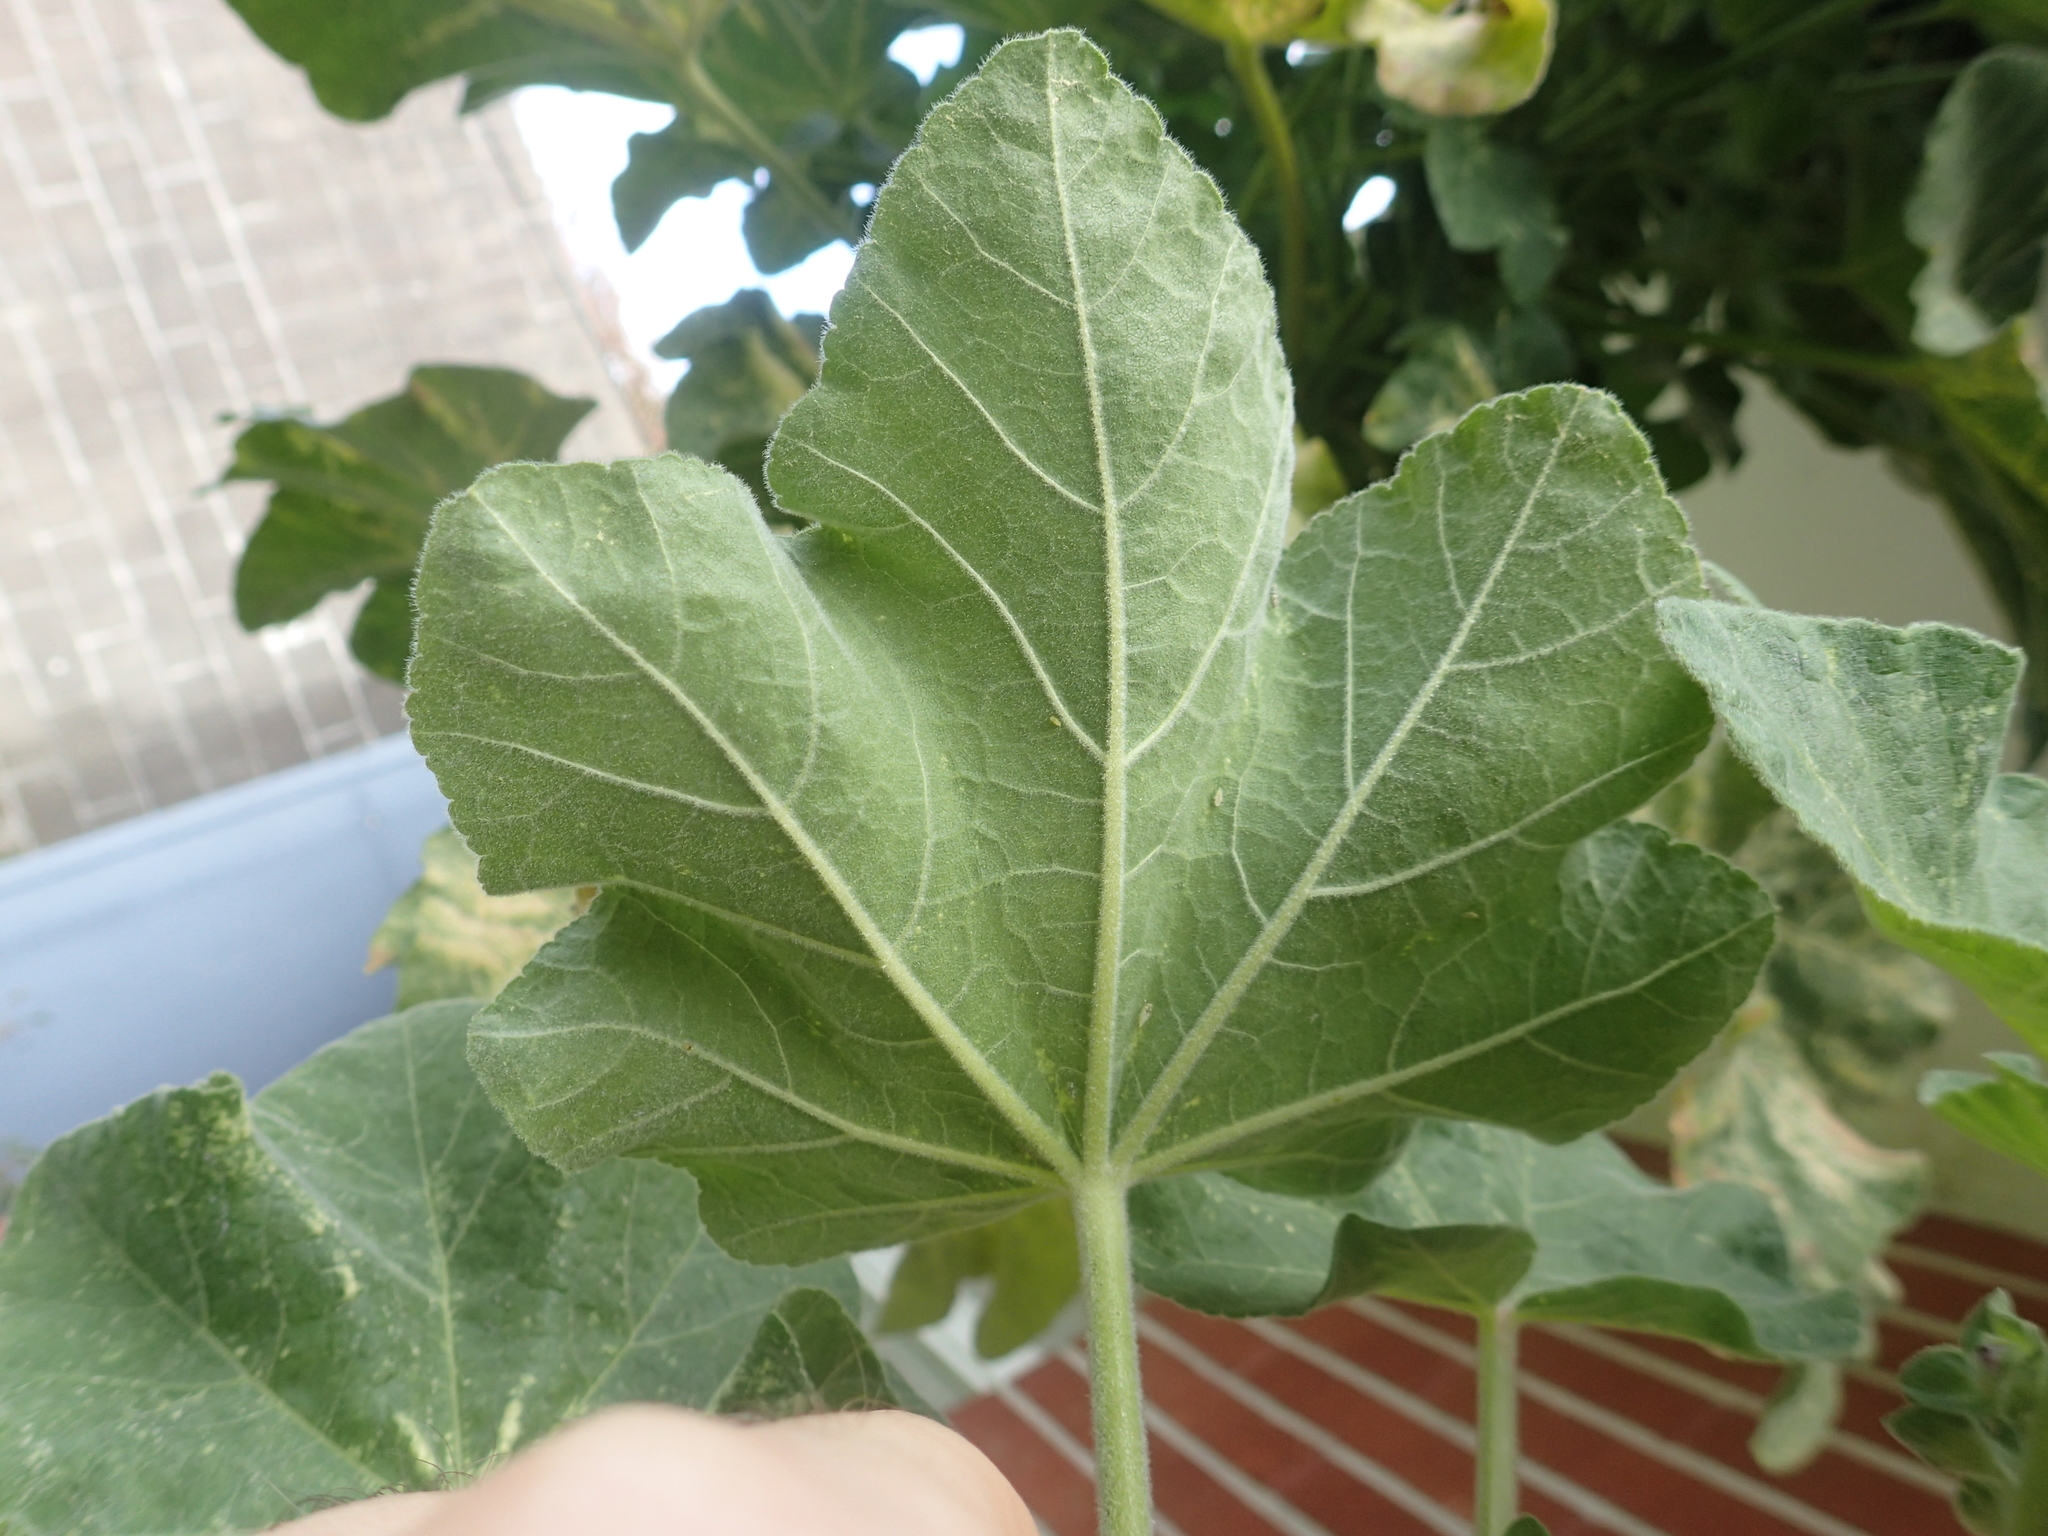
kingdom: Plantae
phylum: Tracheophyta
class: Magnoliopsida
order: Malvales
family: Malvaceae
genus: Malva
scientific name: Malva arborea
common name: Tree mallow
